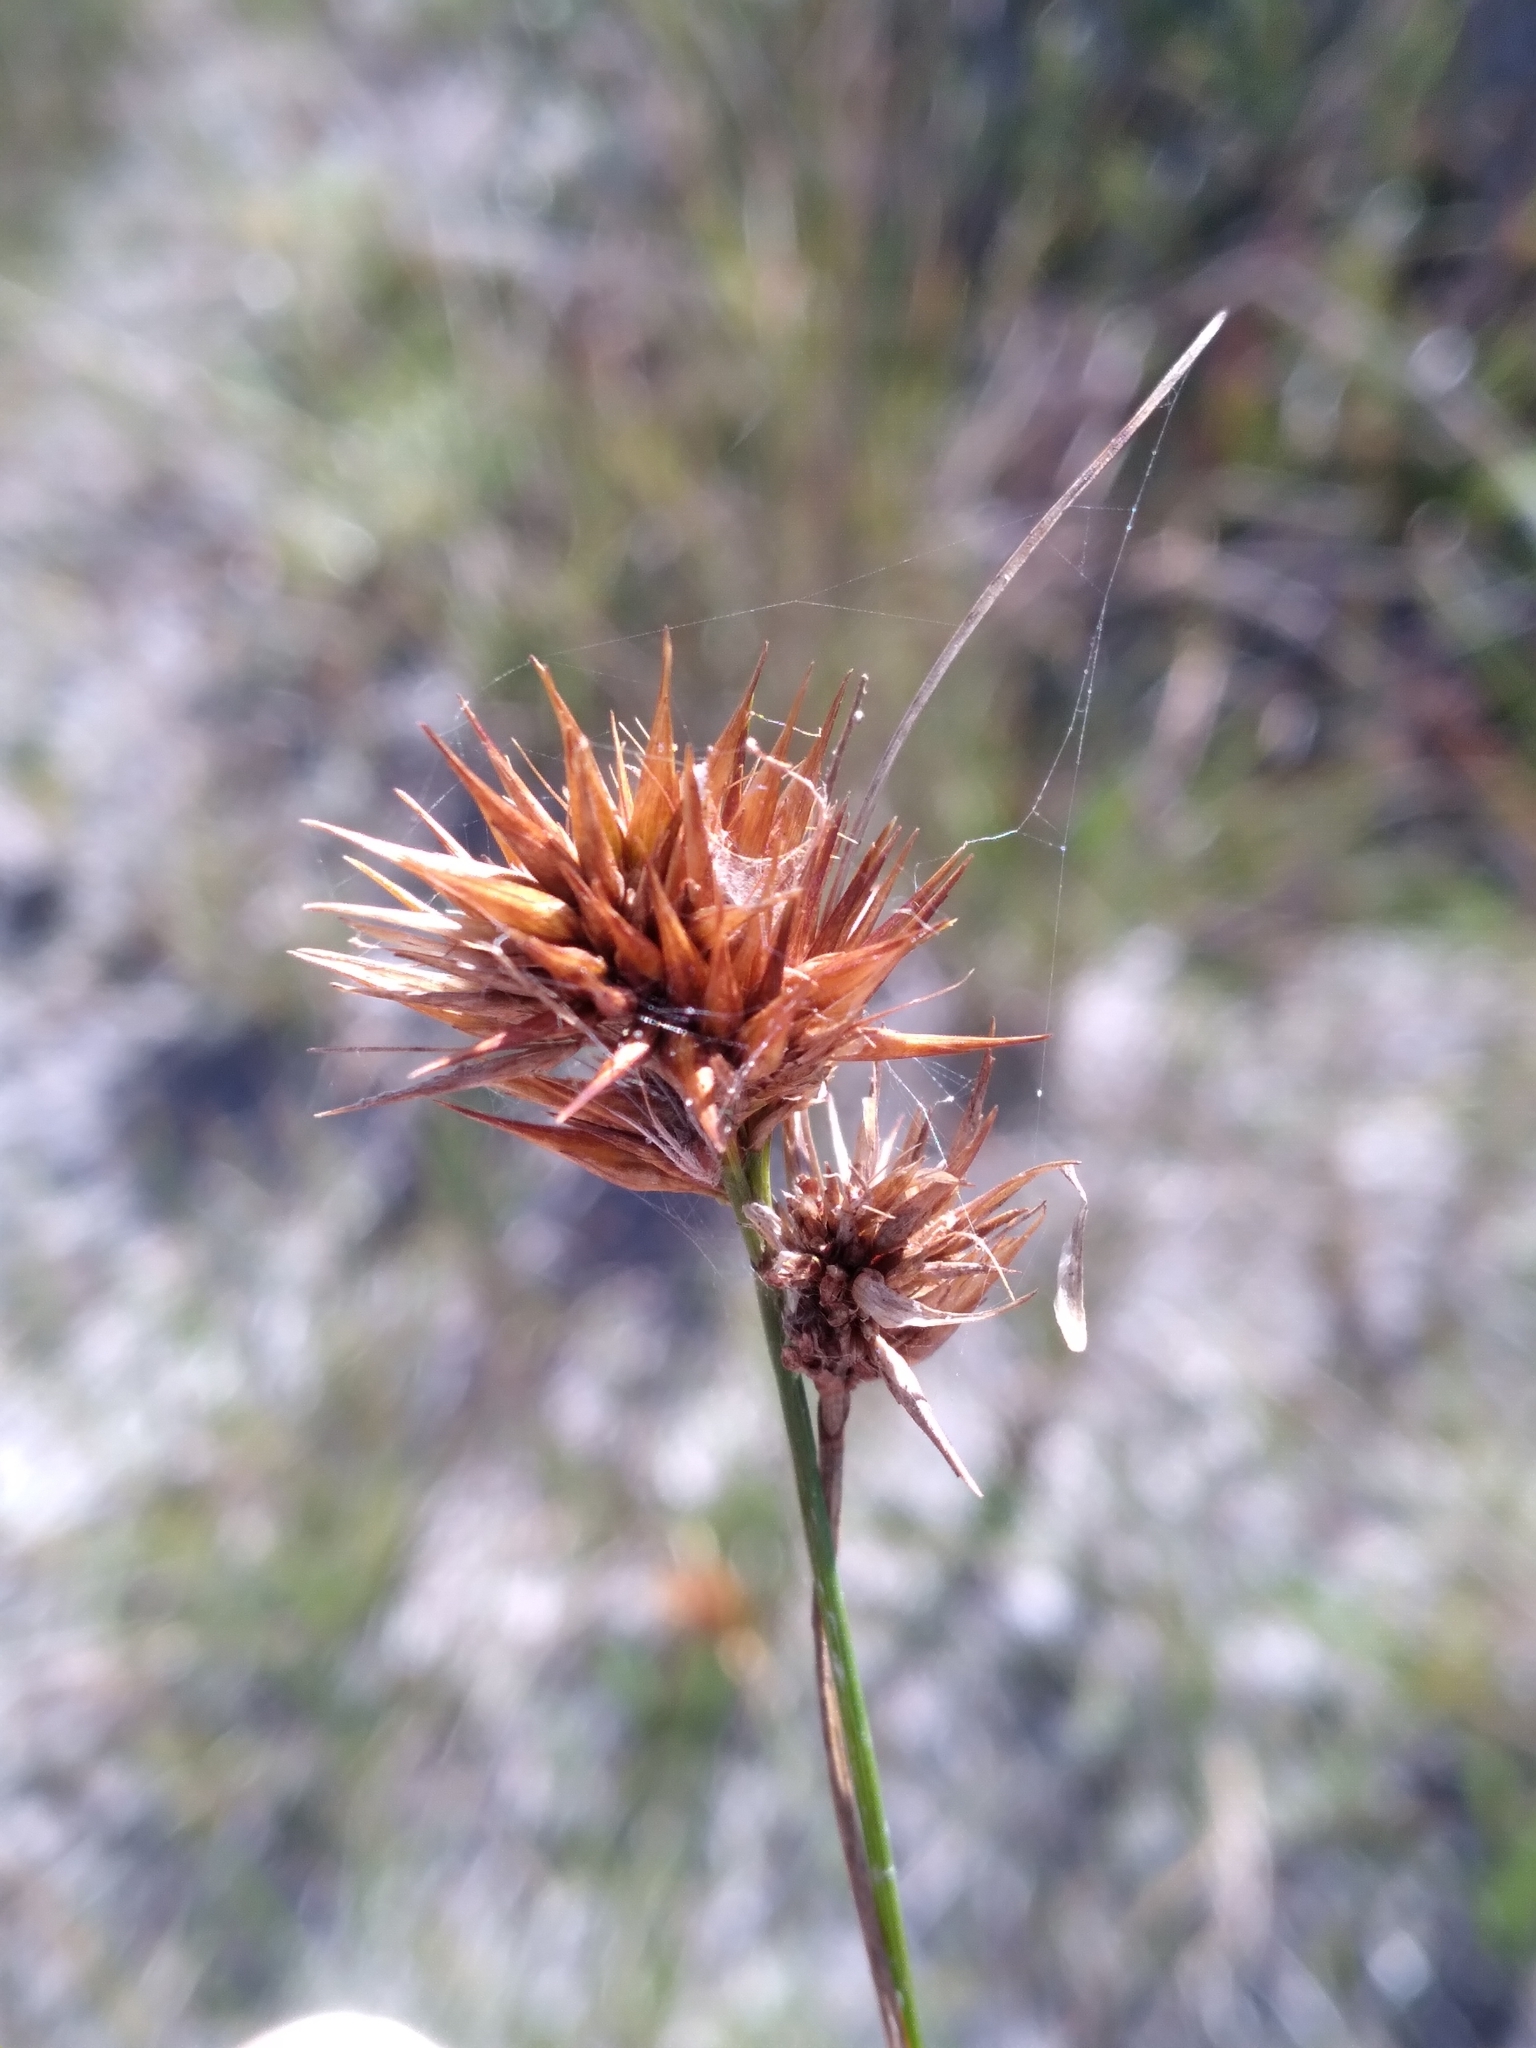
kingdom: Plantae
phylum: Tracheophyta
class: Liliopsida
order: Poales
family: Cyperaceae
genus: Rhynchospora
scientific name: Rhynchospora megaplumosa
